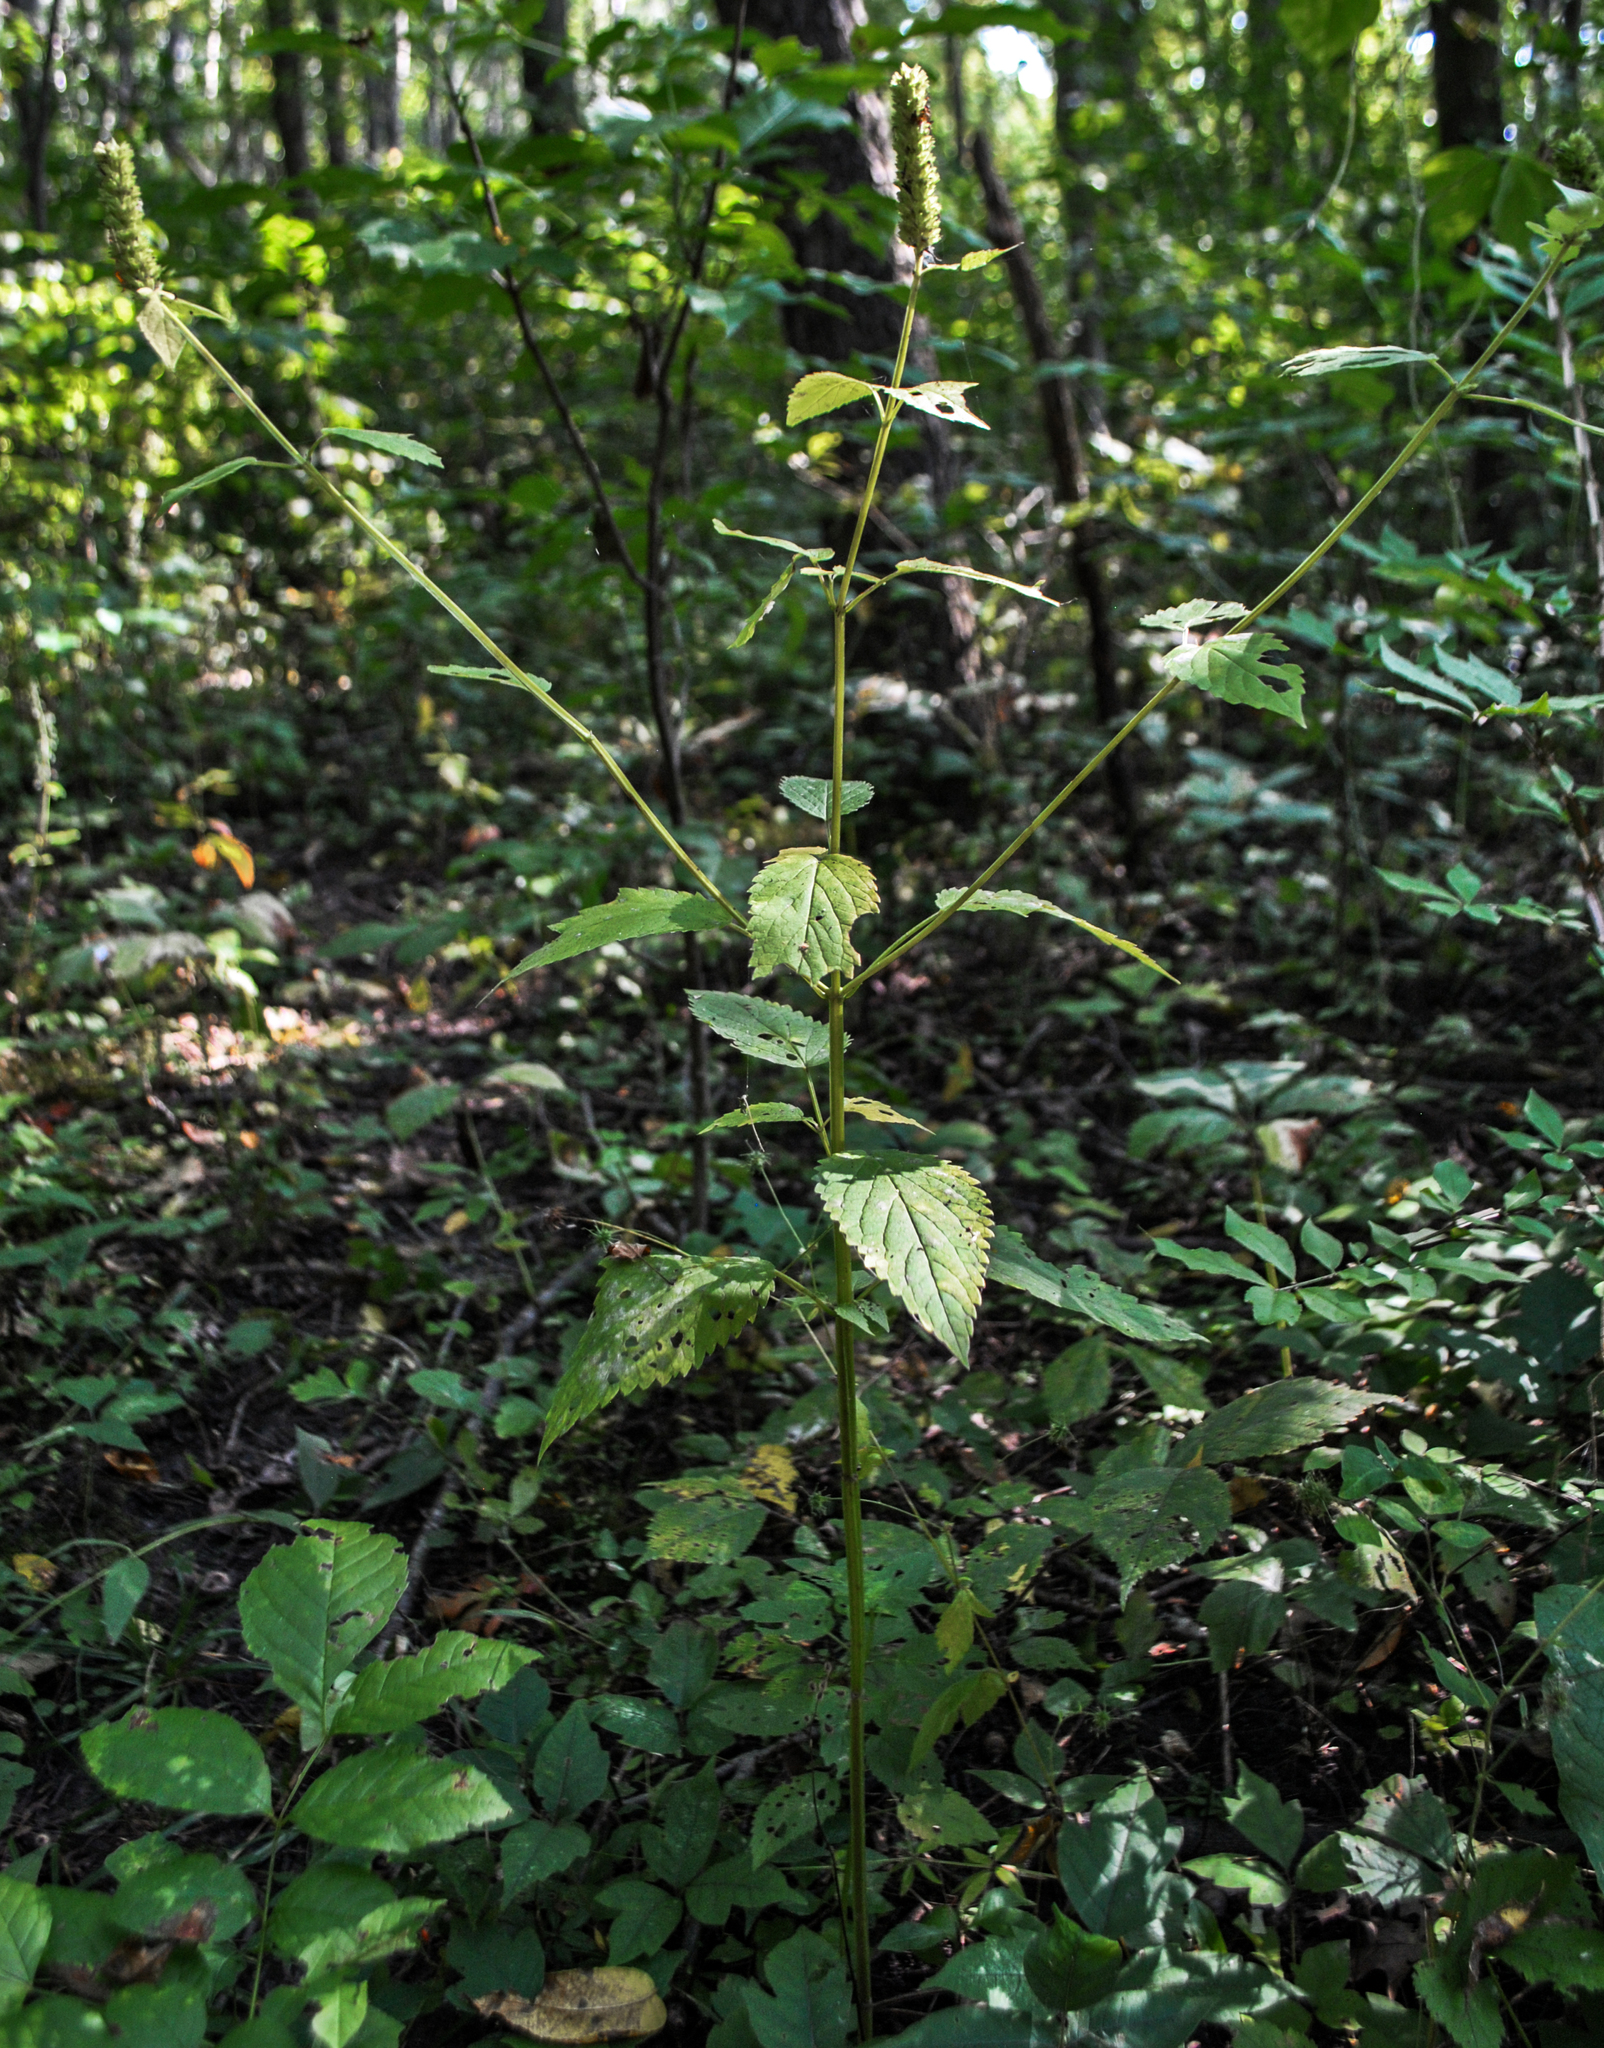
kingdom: Plantae
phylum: Tracheophyta
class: Magnoliopsida
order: Lamiales
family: Lamiaceae
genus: Agastache
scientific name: Agastache nepetoides
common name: Catnip giant hyssop
